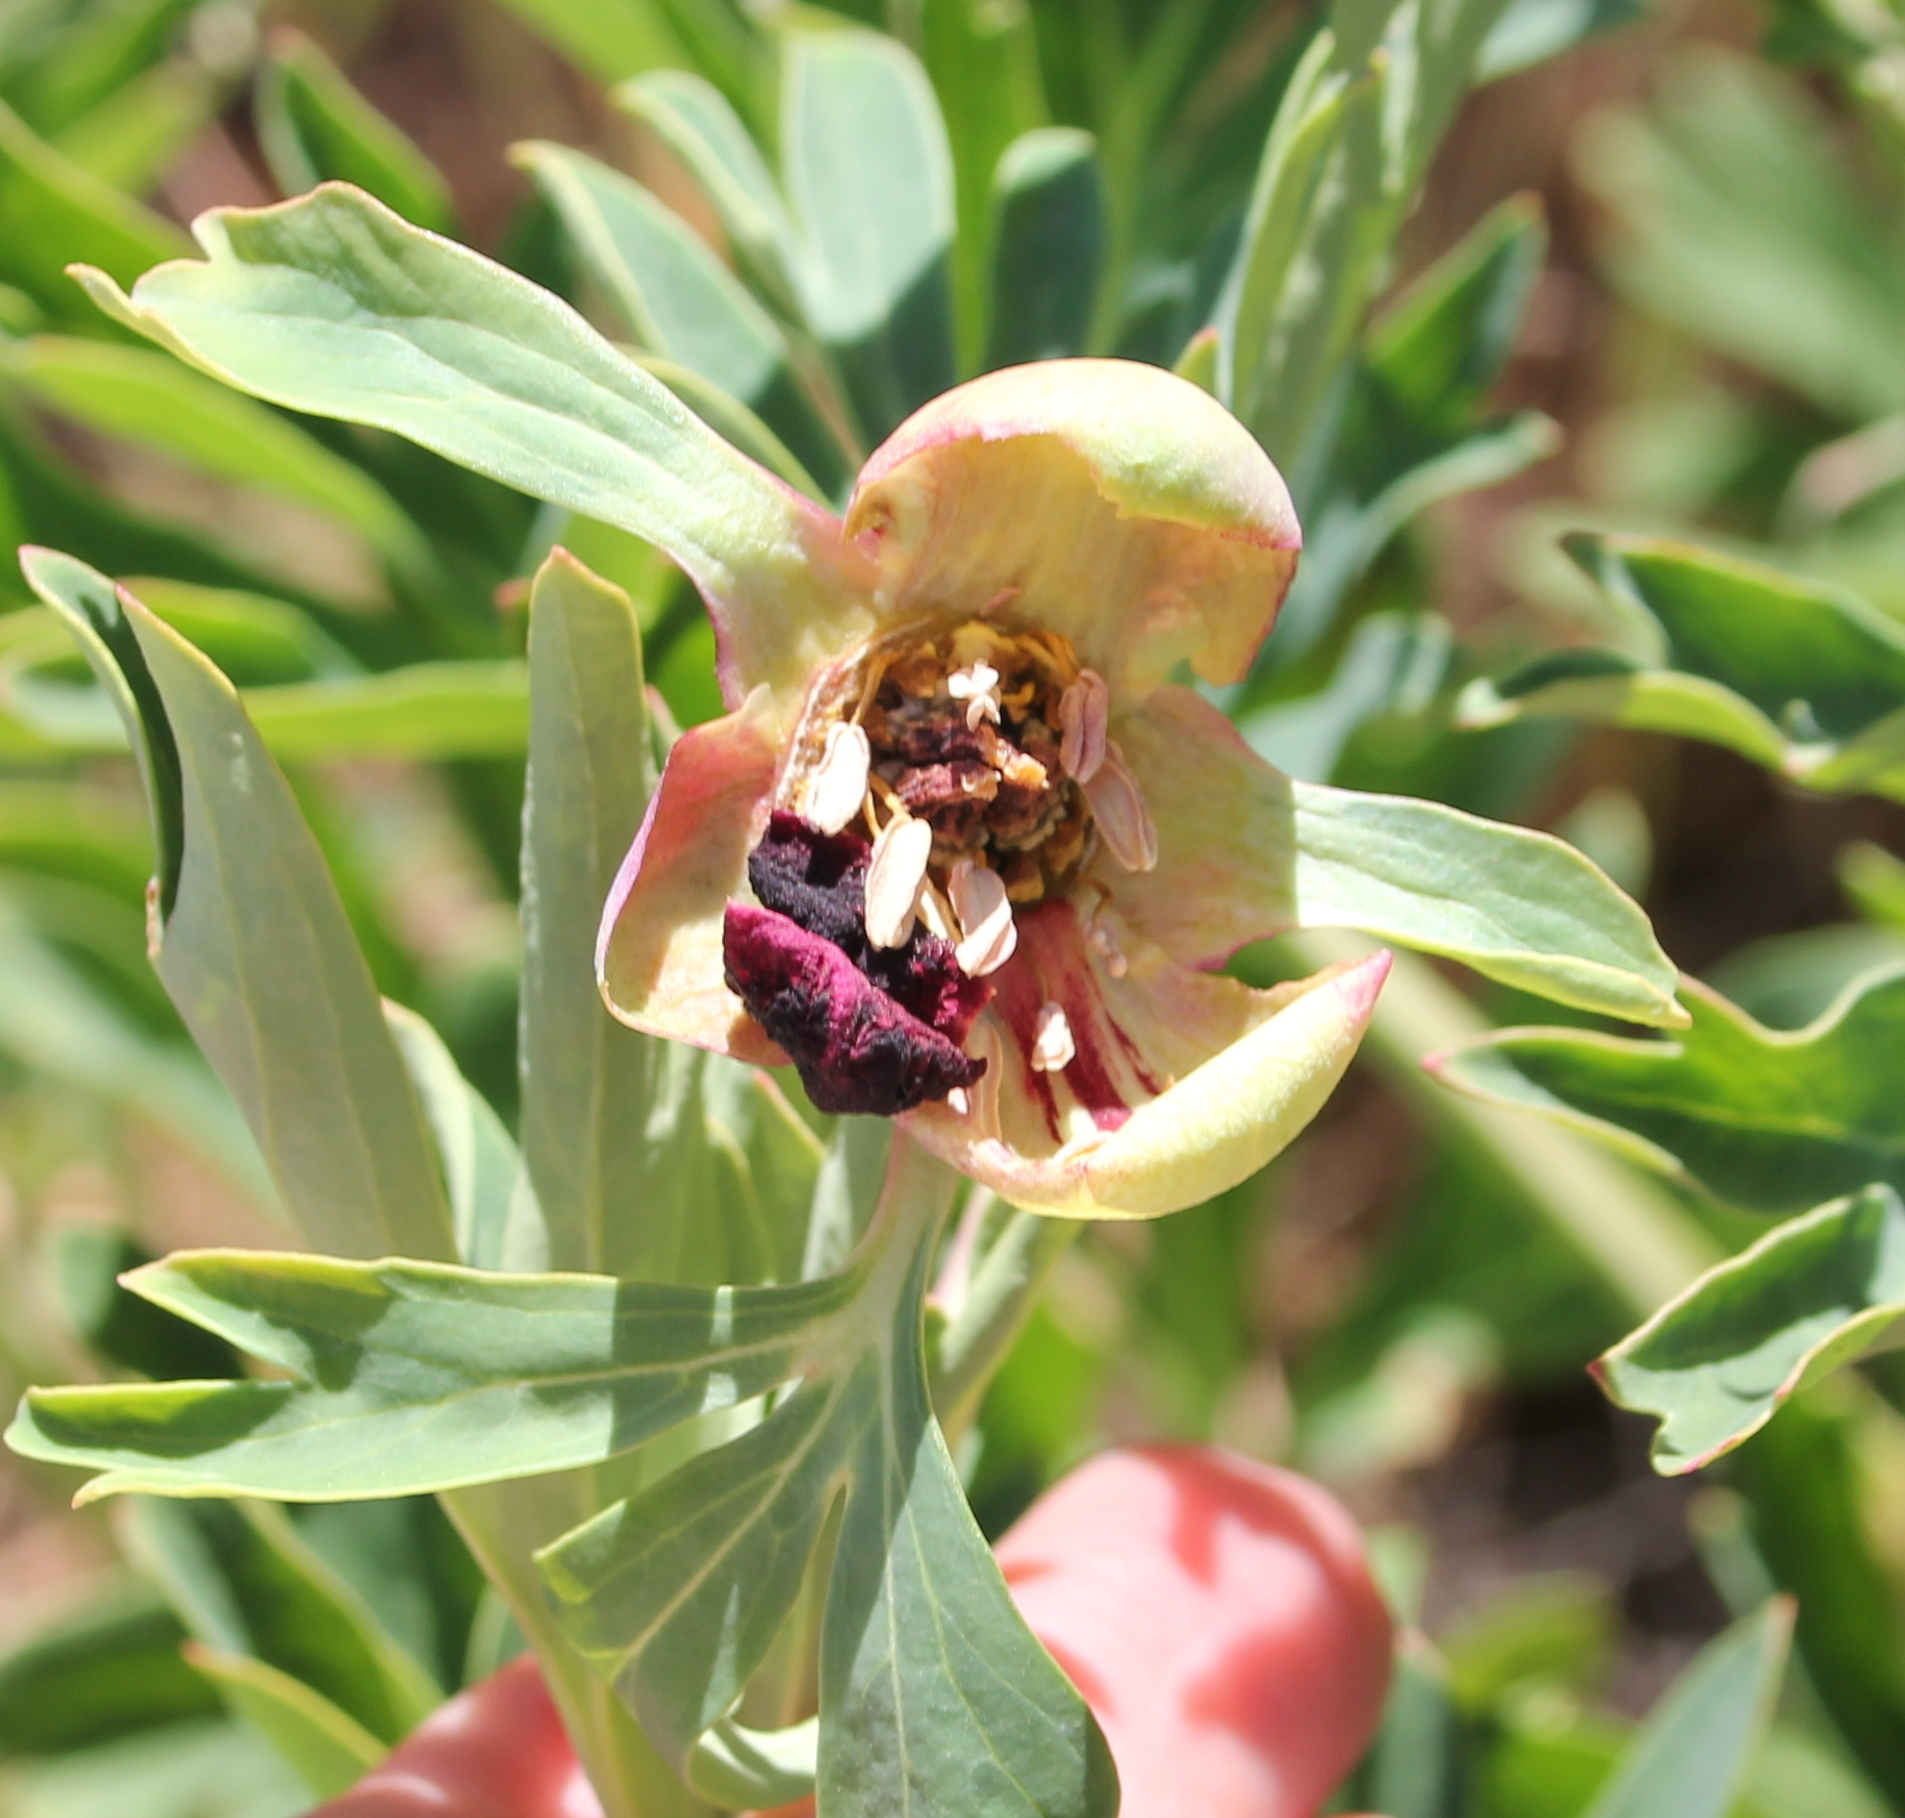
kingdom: Plantae
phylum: Tracheophyta
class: Magnoliopsida
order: Saxifragales
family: Paeoniaceae
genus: Paeonia
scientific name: Paeonia californica
